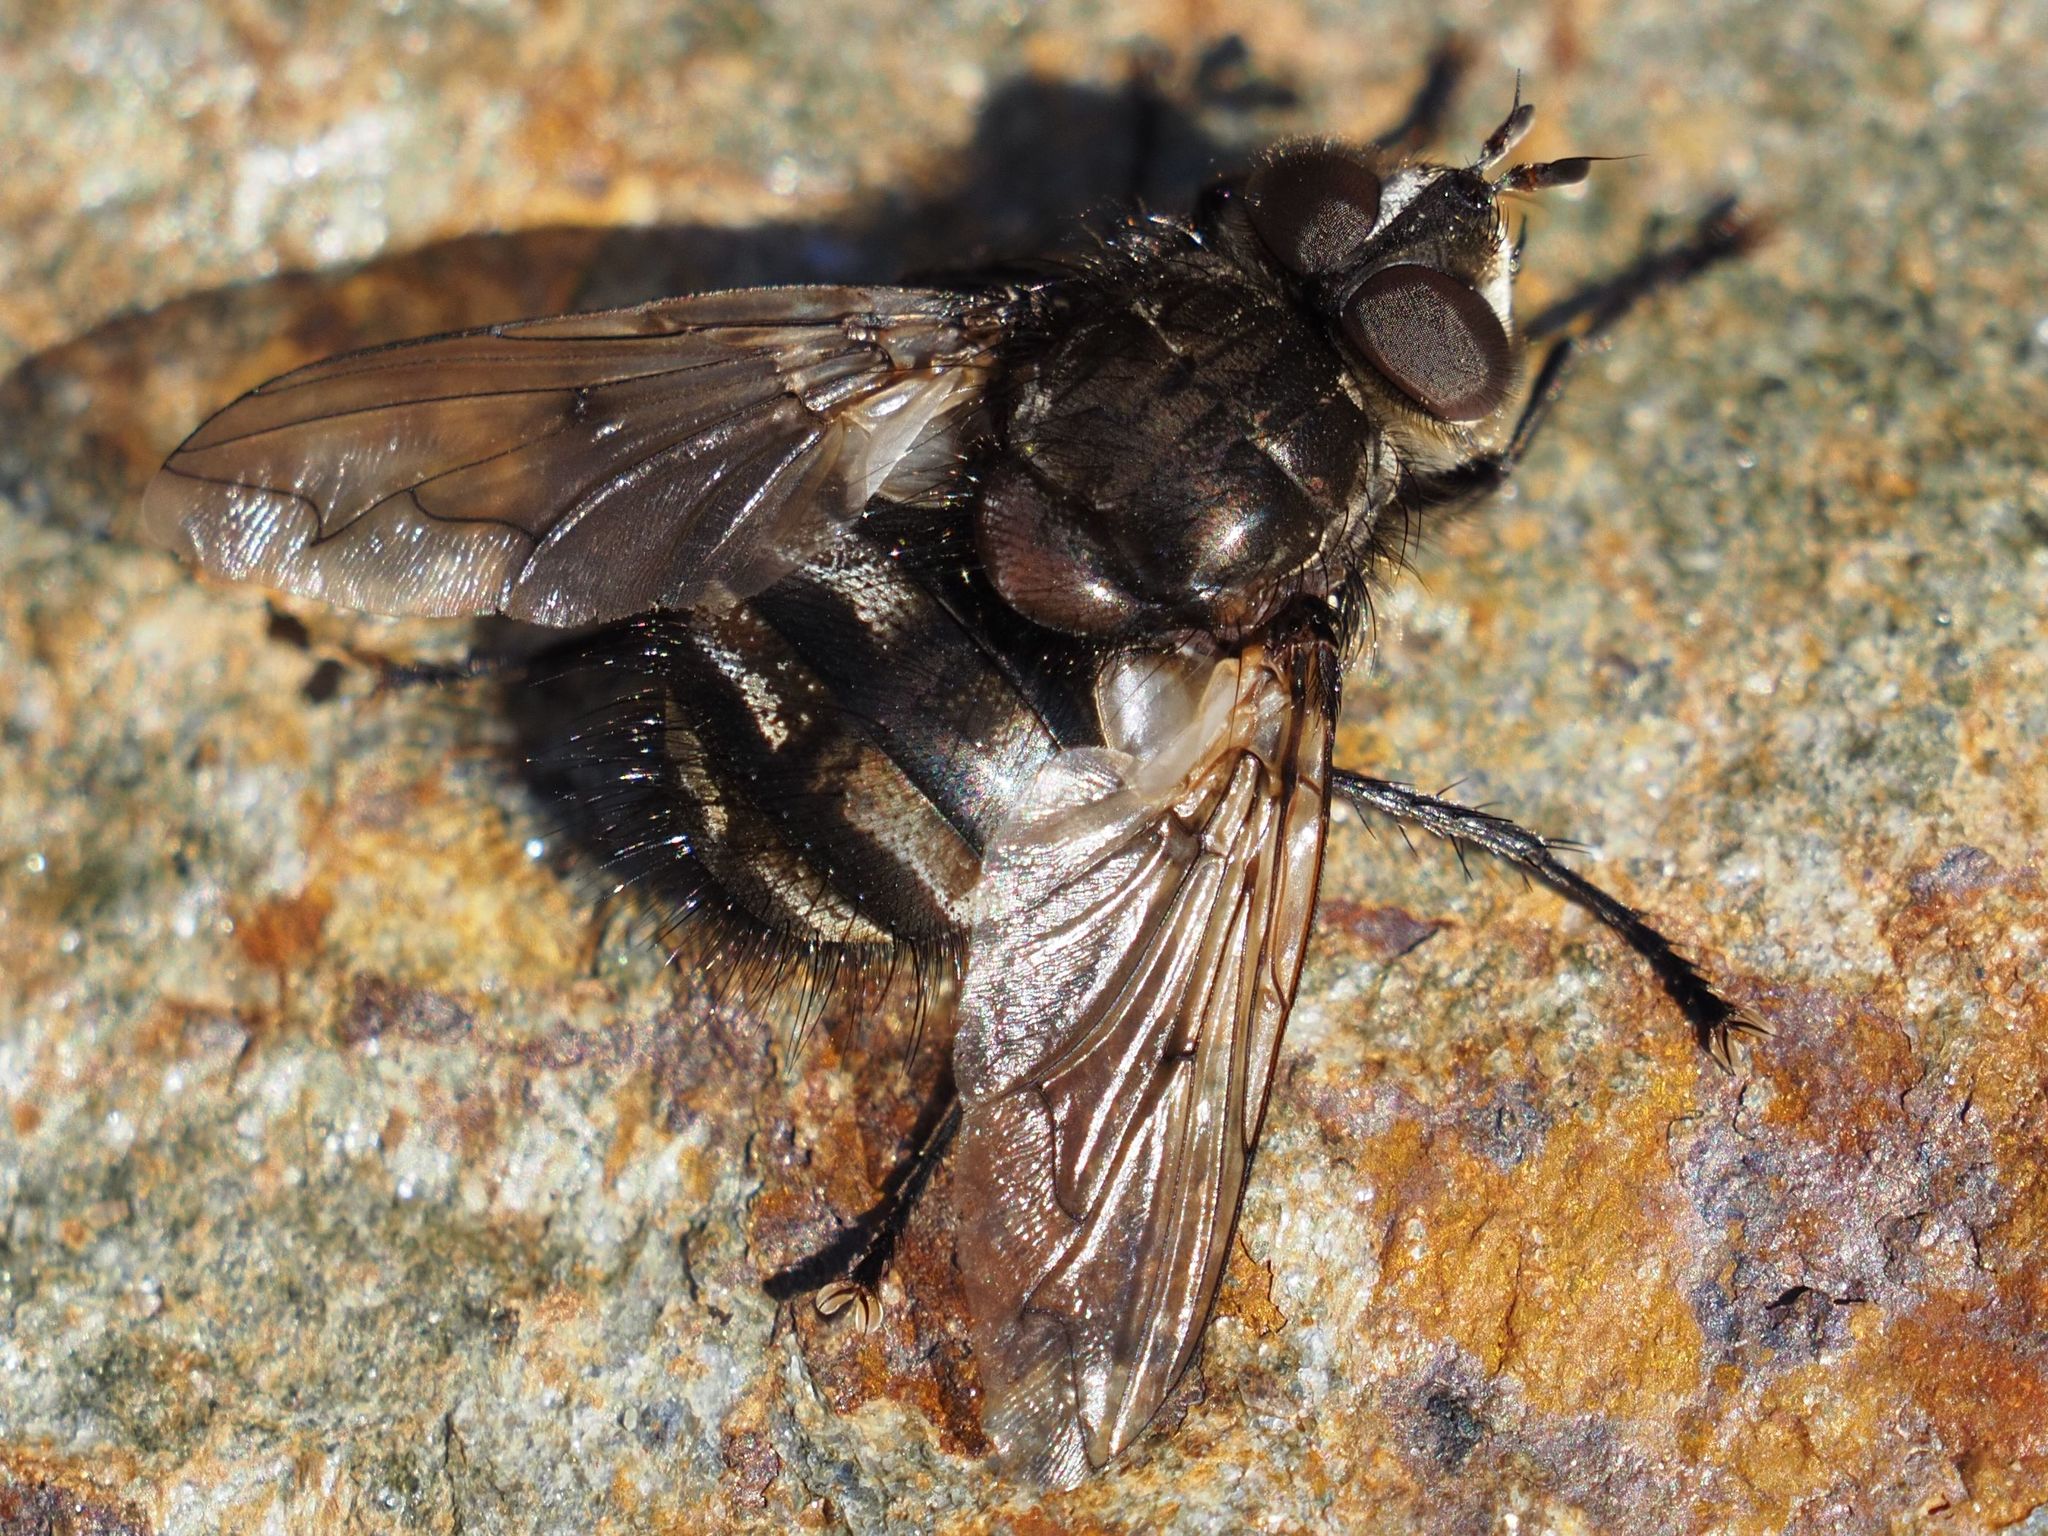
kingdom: Animalia
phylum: Arthropoda
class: Insecta
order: Diptera
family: Tachinidae
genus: Panzeria
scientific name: Panzeria puparum
